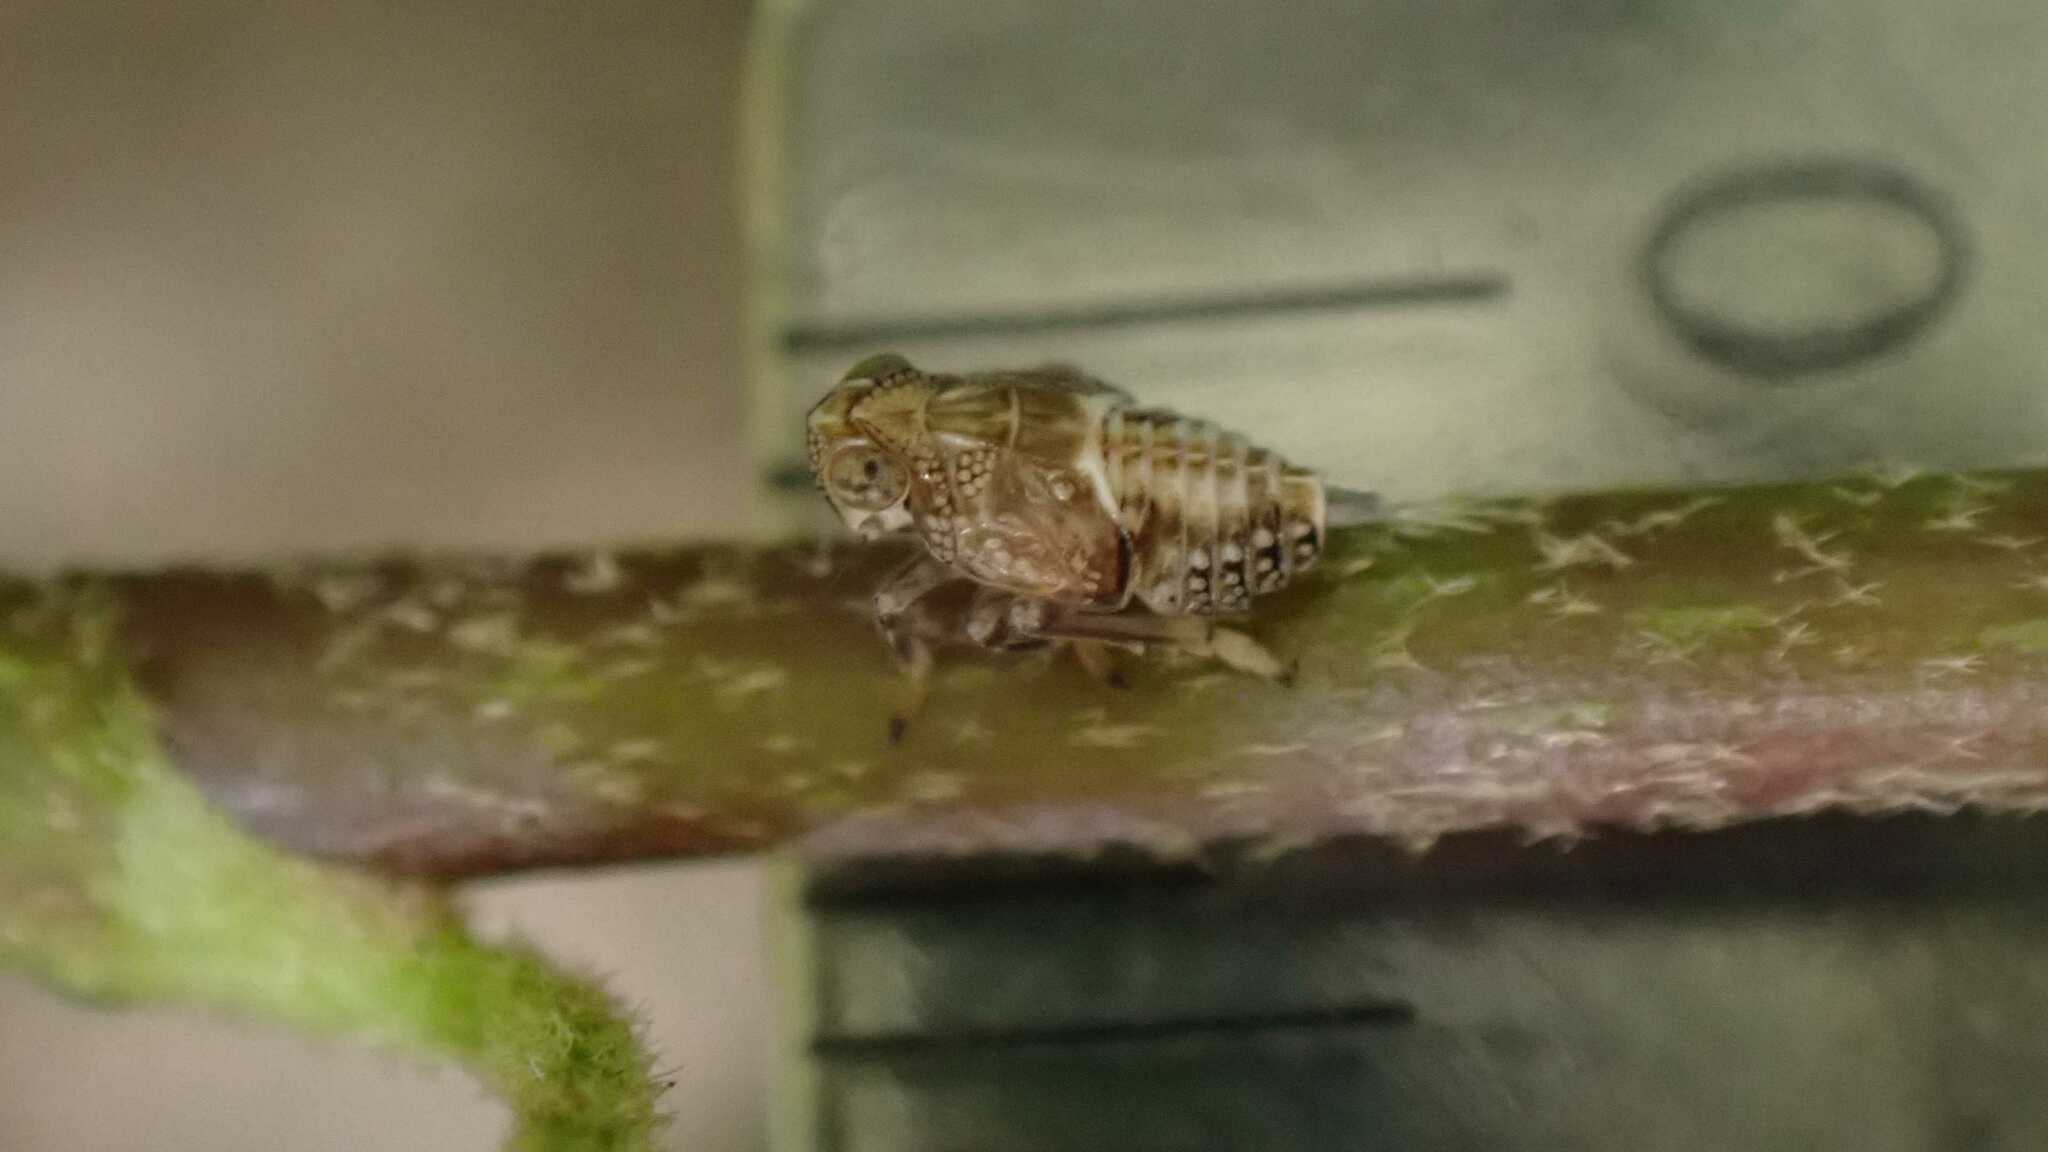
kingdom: Animalia
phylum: Arthropoda
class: Insecta
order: Hemiptera
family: Issidae
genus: Issus
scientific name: Issus coleoptratus
